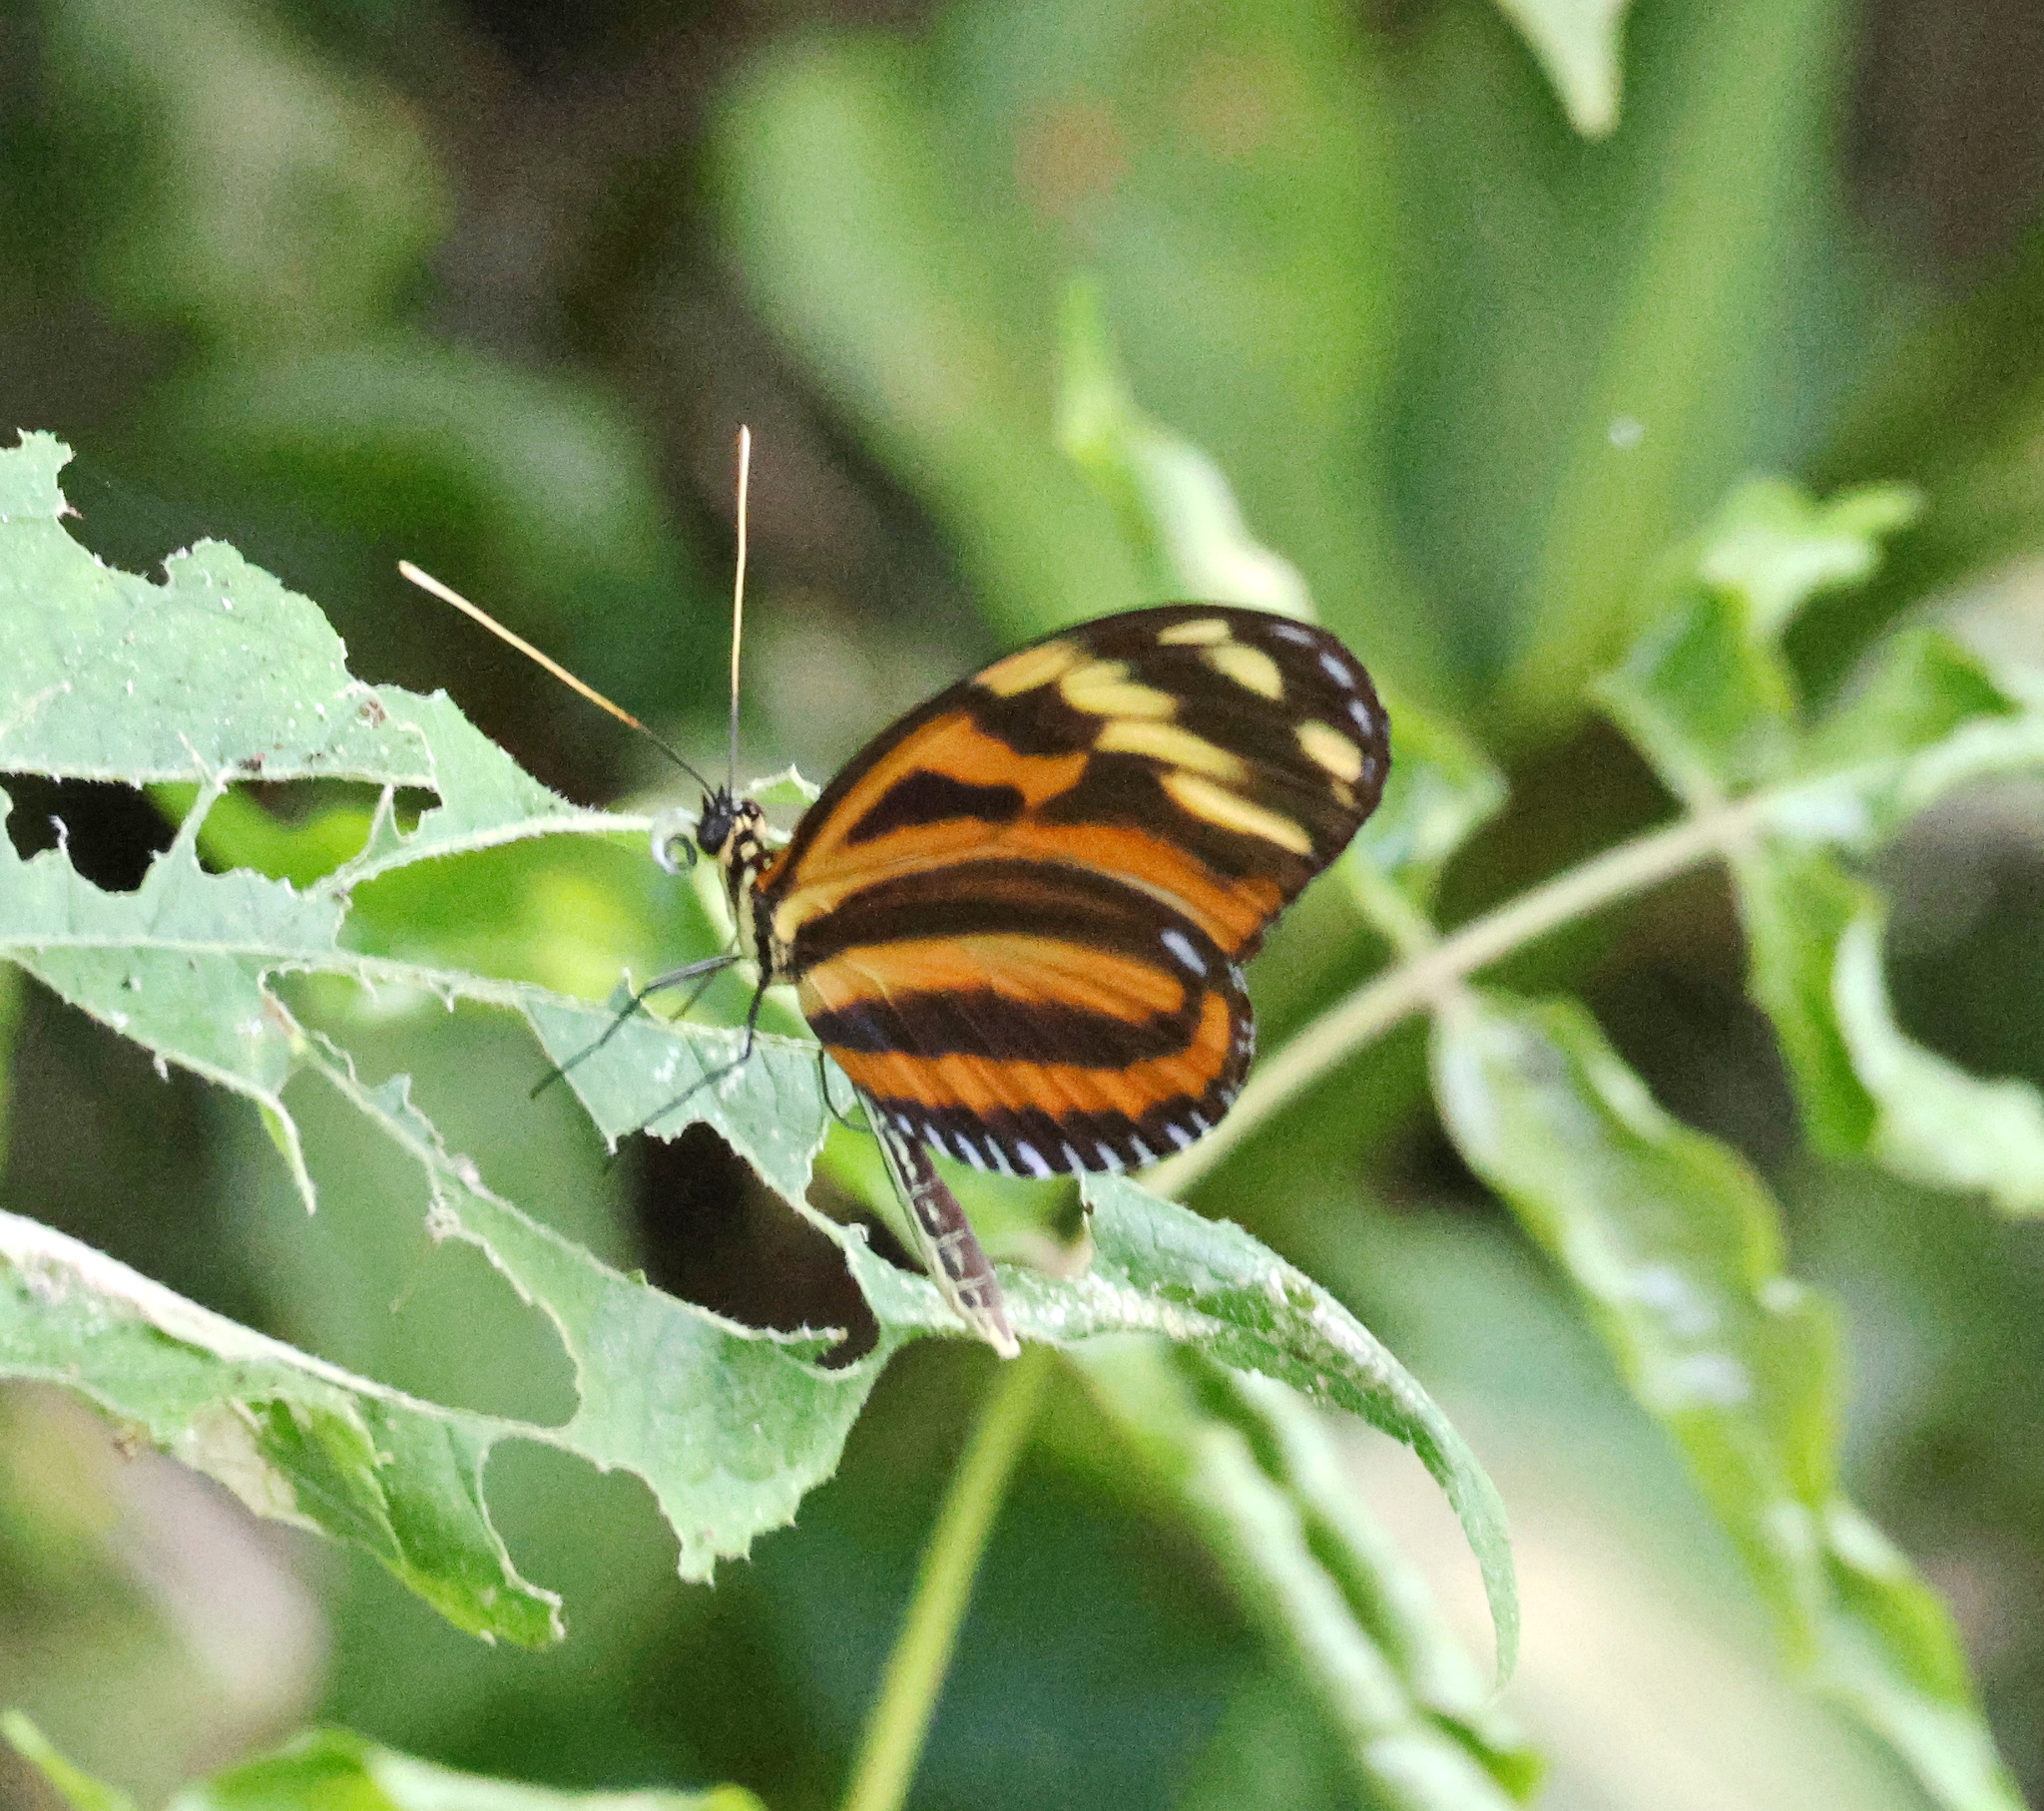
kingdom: Animalia
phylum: Arthropoda
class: Insecta
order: Lepidoptera
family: Nymphalidae
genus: Heliconius
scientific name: Heliconius ismenius
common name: Ismenius tiger
